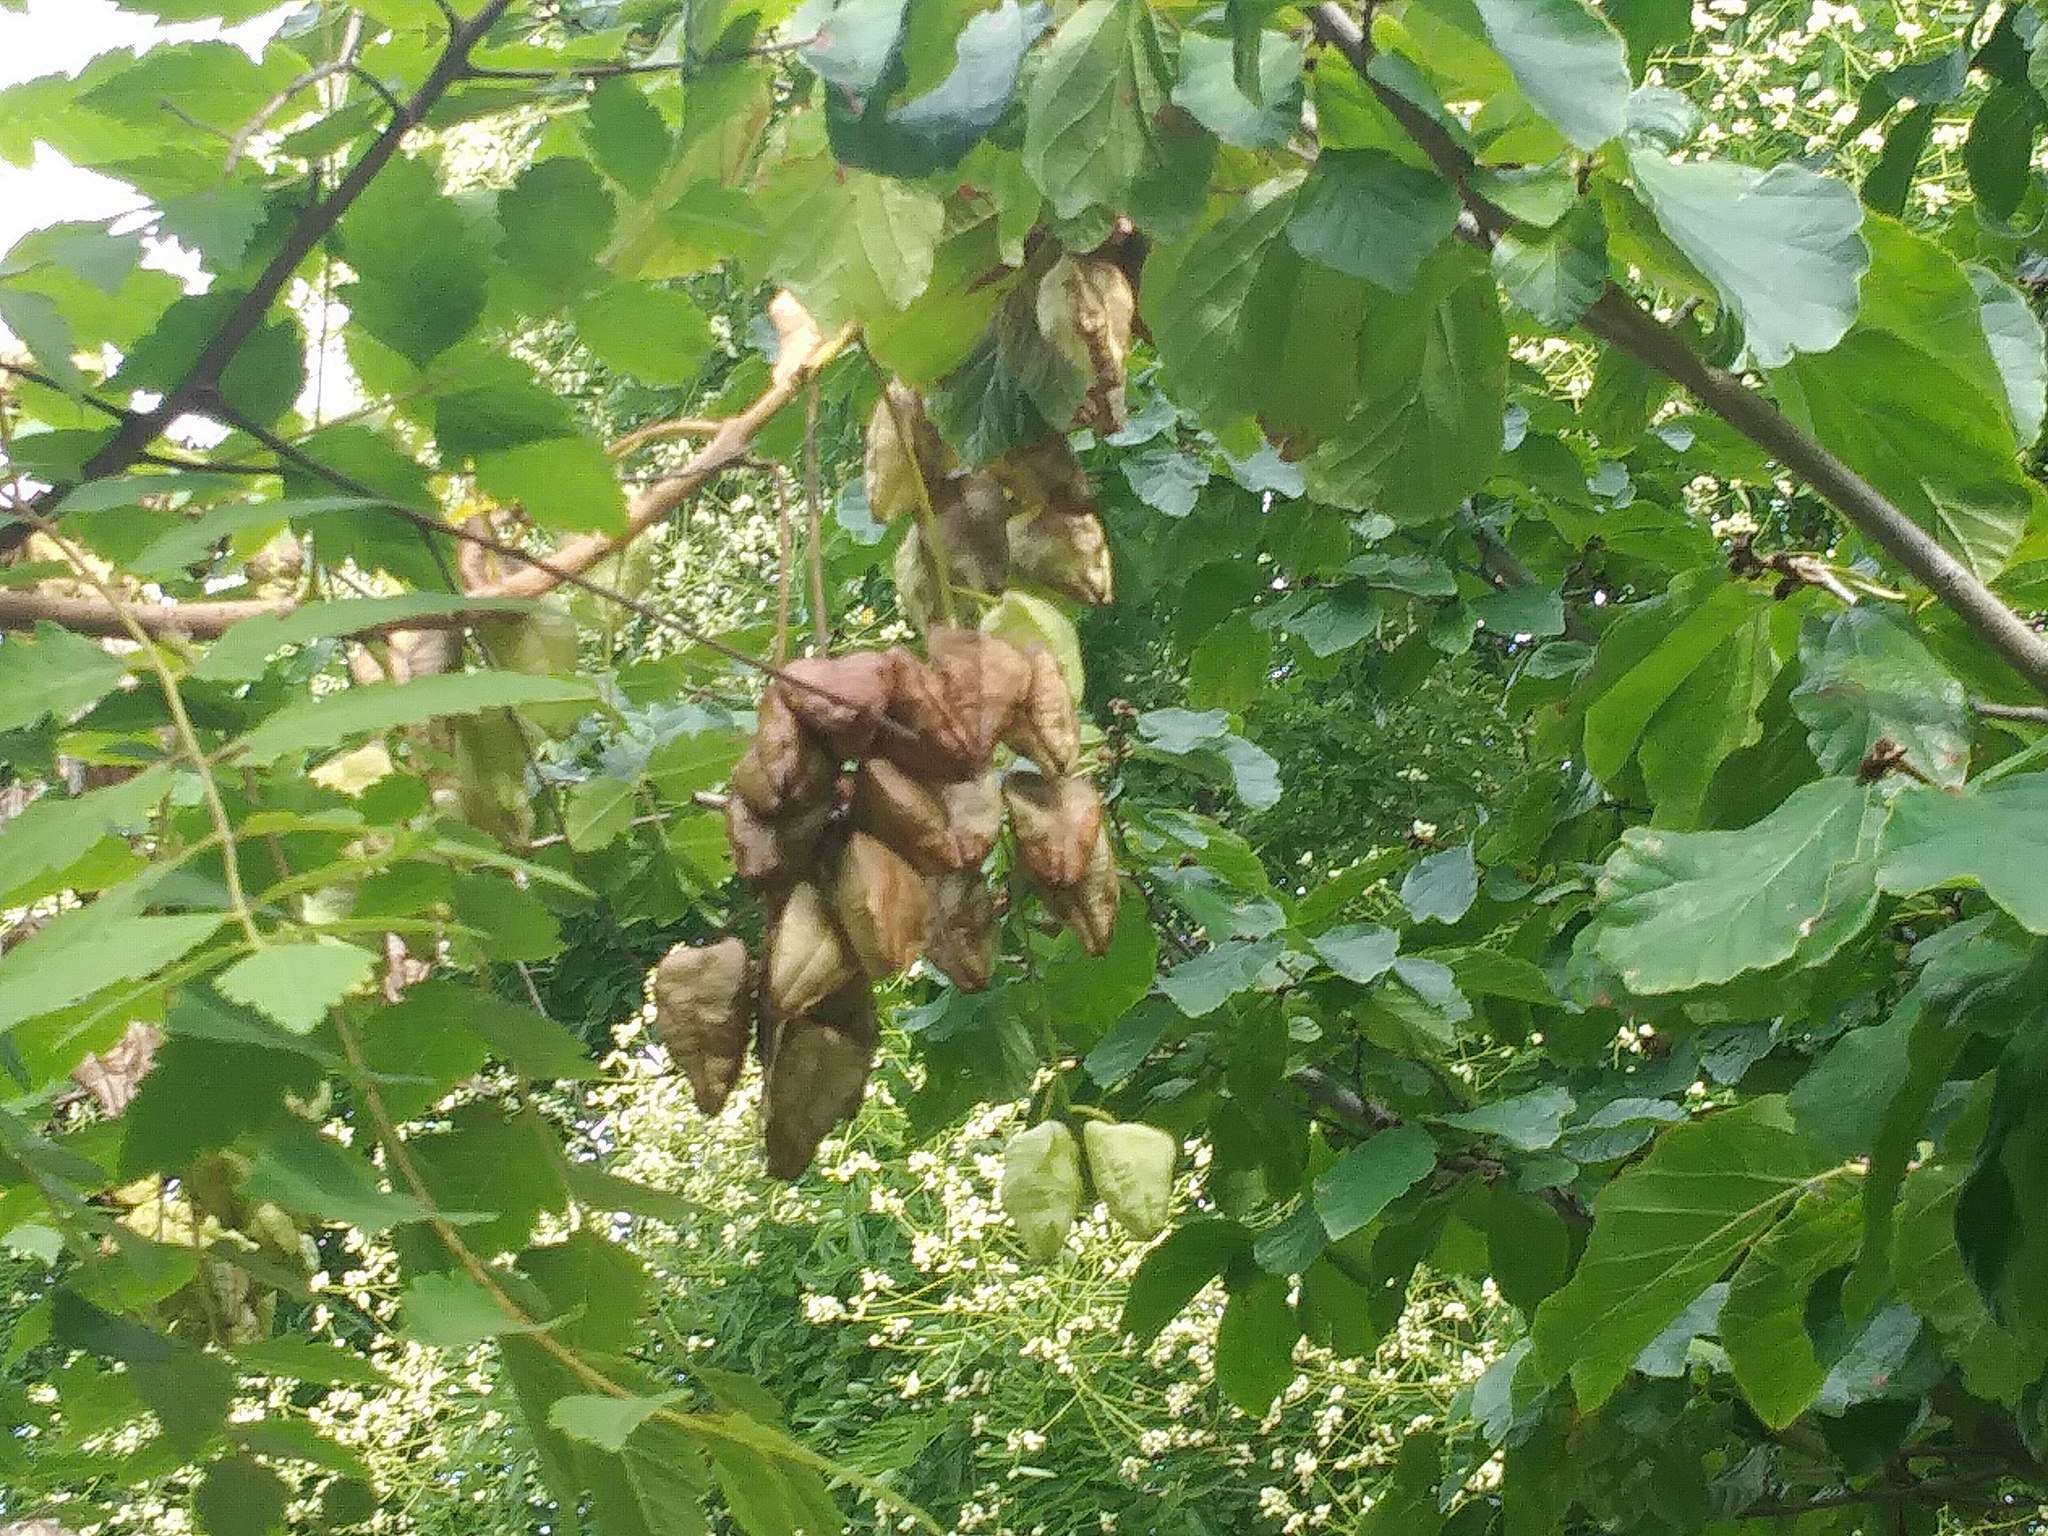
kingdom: Plantae
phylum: Tracheophyta
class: Magnoliopsida
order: Sapindales
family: Sapindaceae
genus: Koelreuteria
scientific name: Koelreuteria paniculata
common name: Pride-of-india
